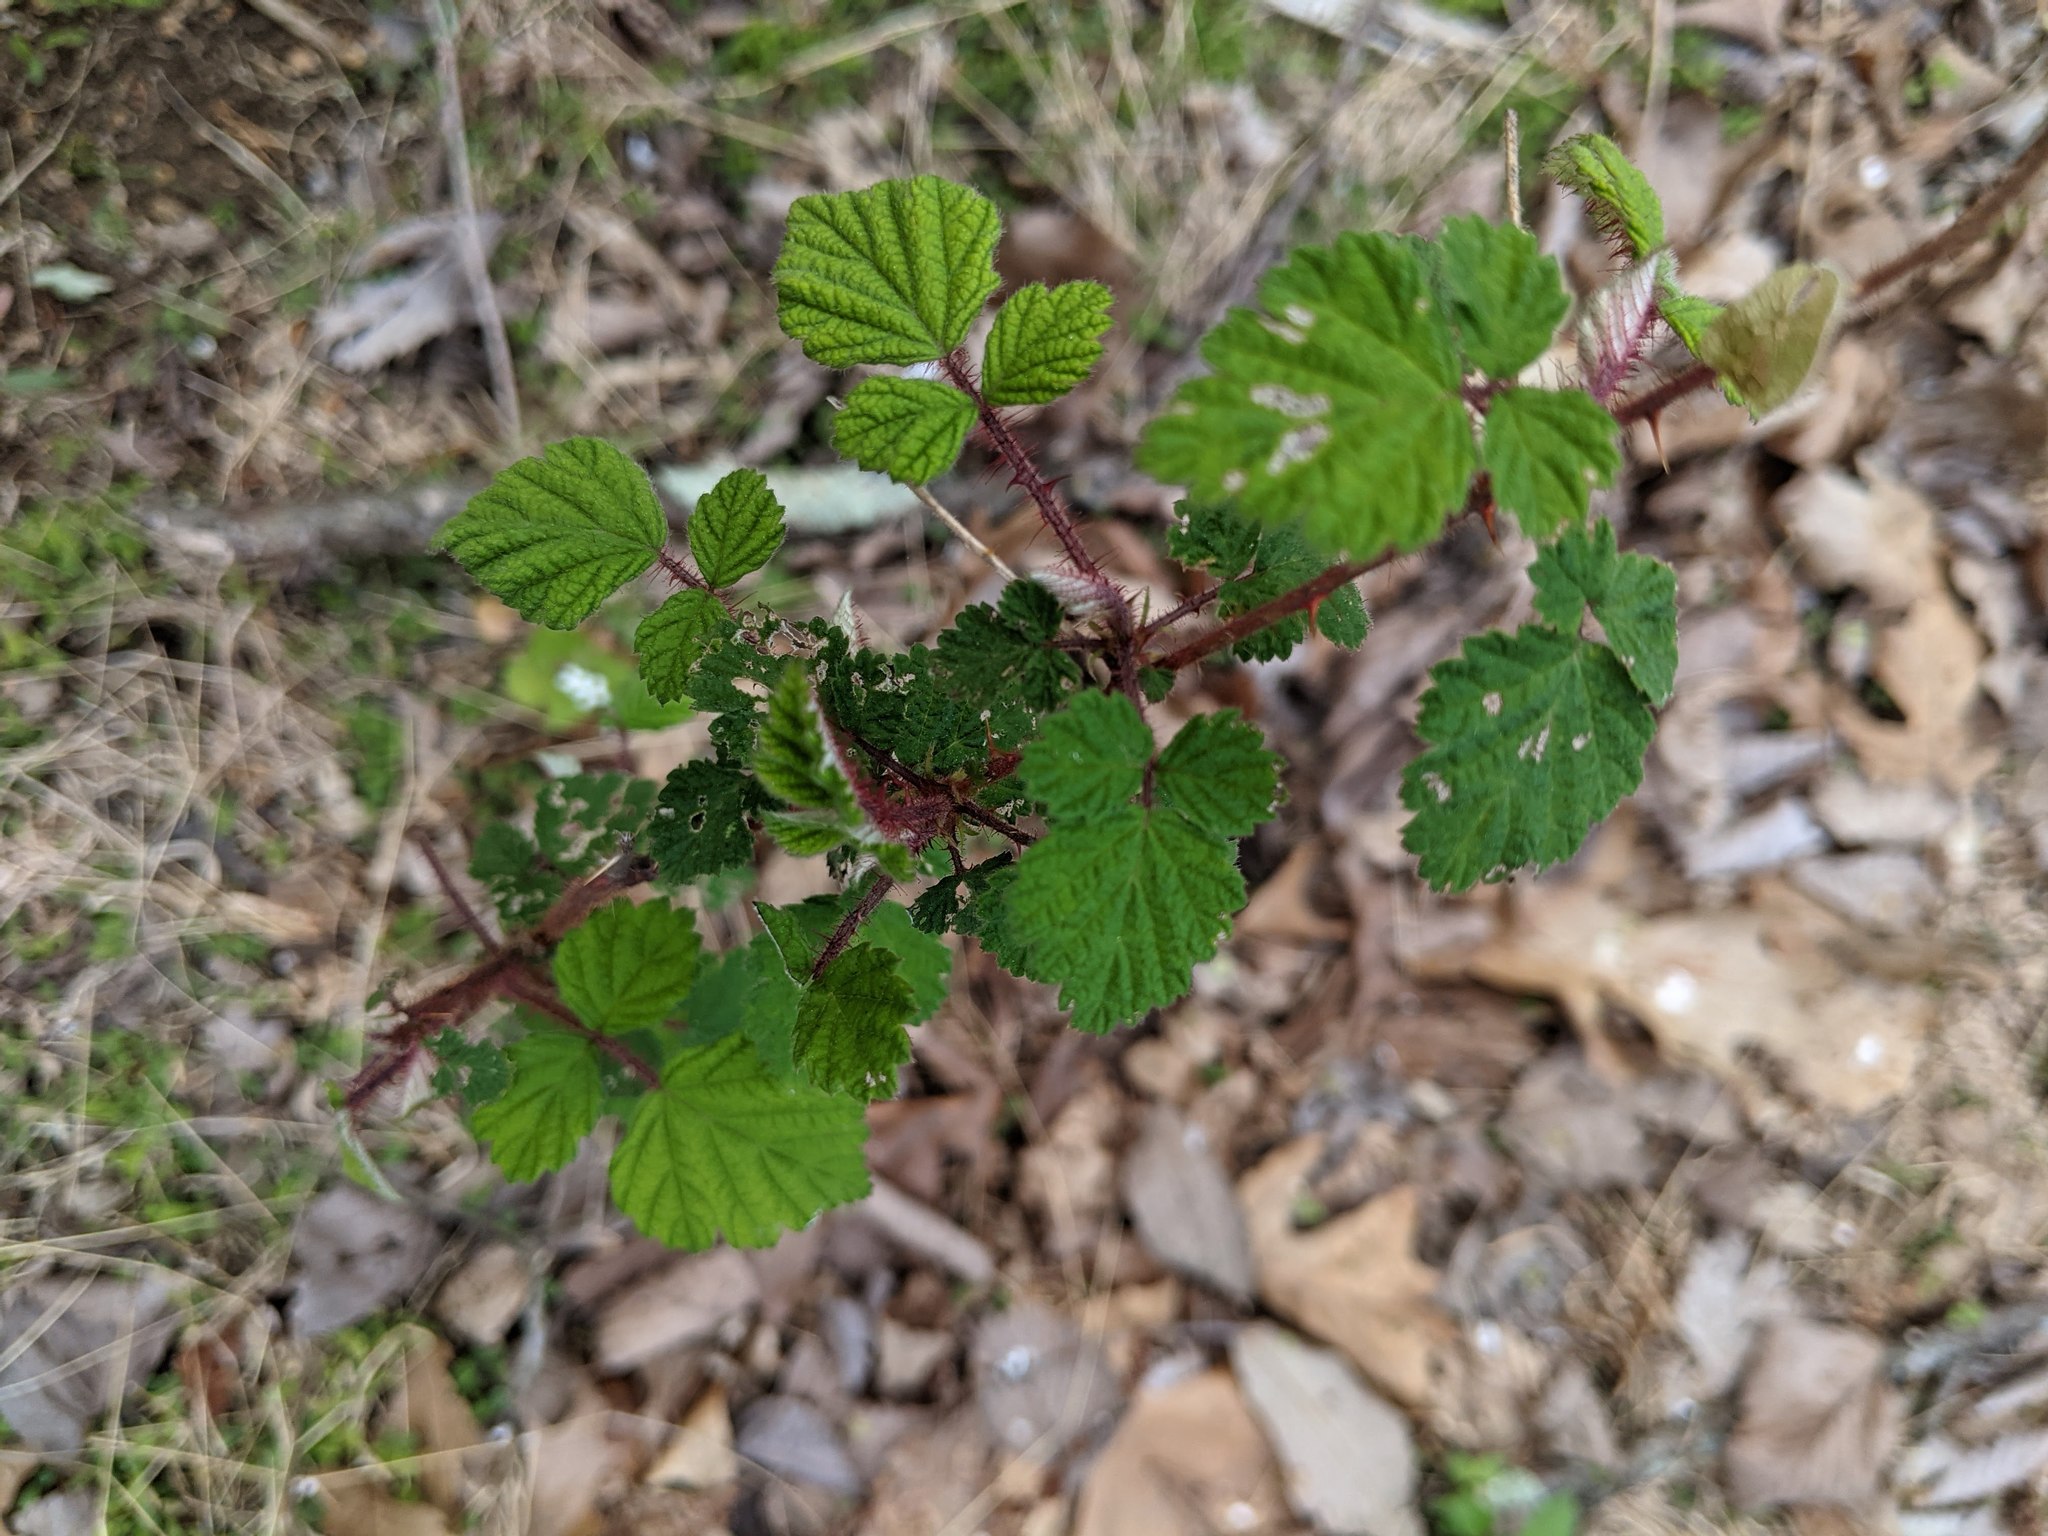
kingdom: Plantae
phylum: Tracheophyta
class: Magnoliopsida
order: Rosales
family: Rosaceae
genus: Rubus
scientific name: Rubus phoenicolasius
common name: Japanese wineberry
